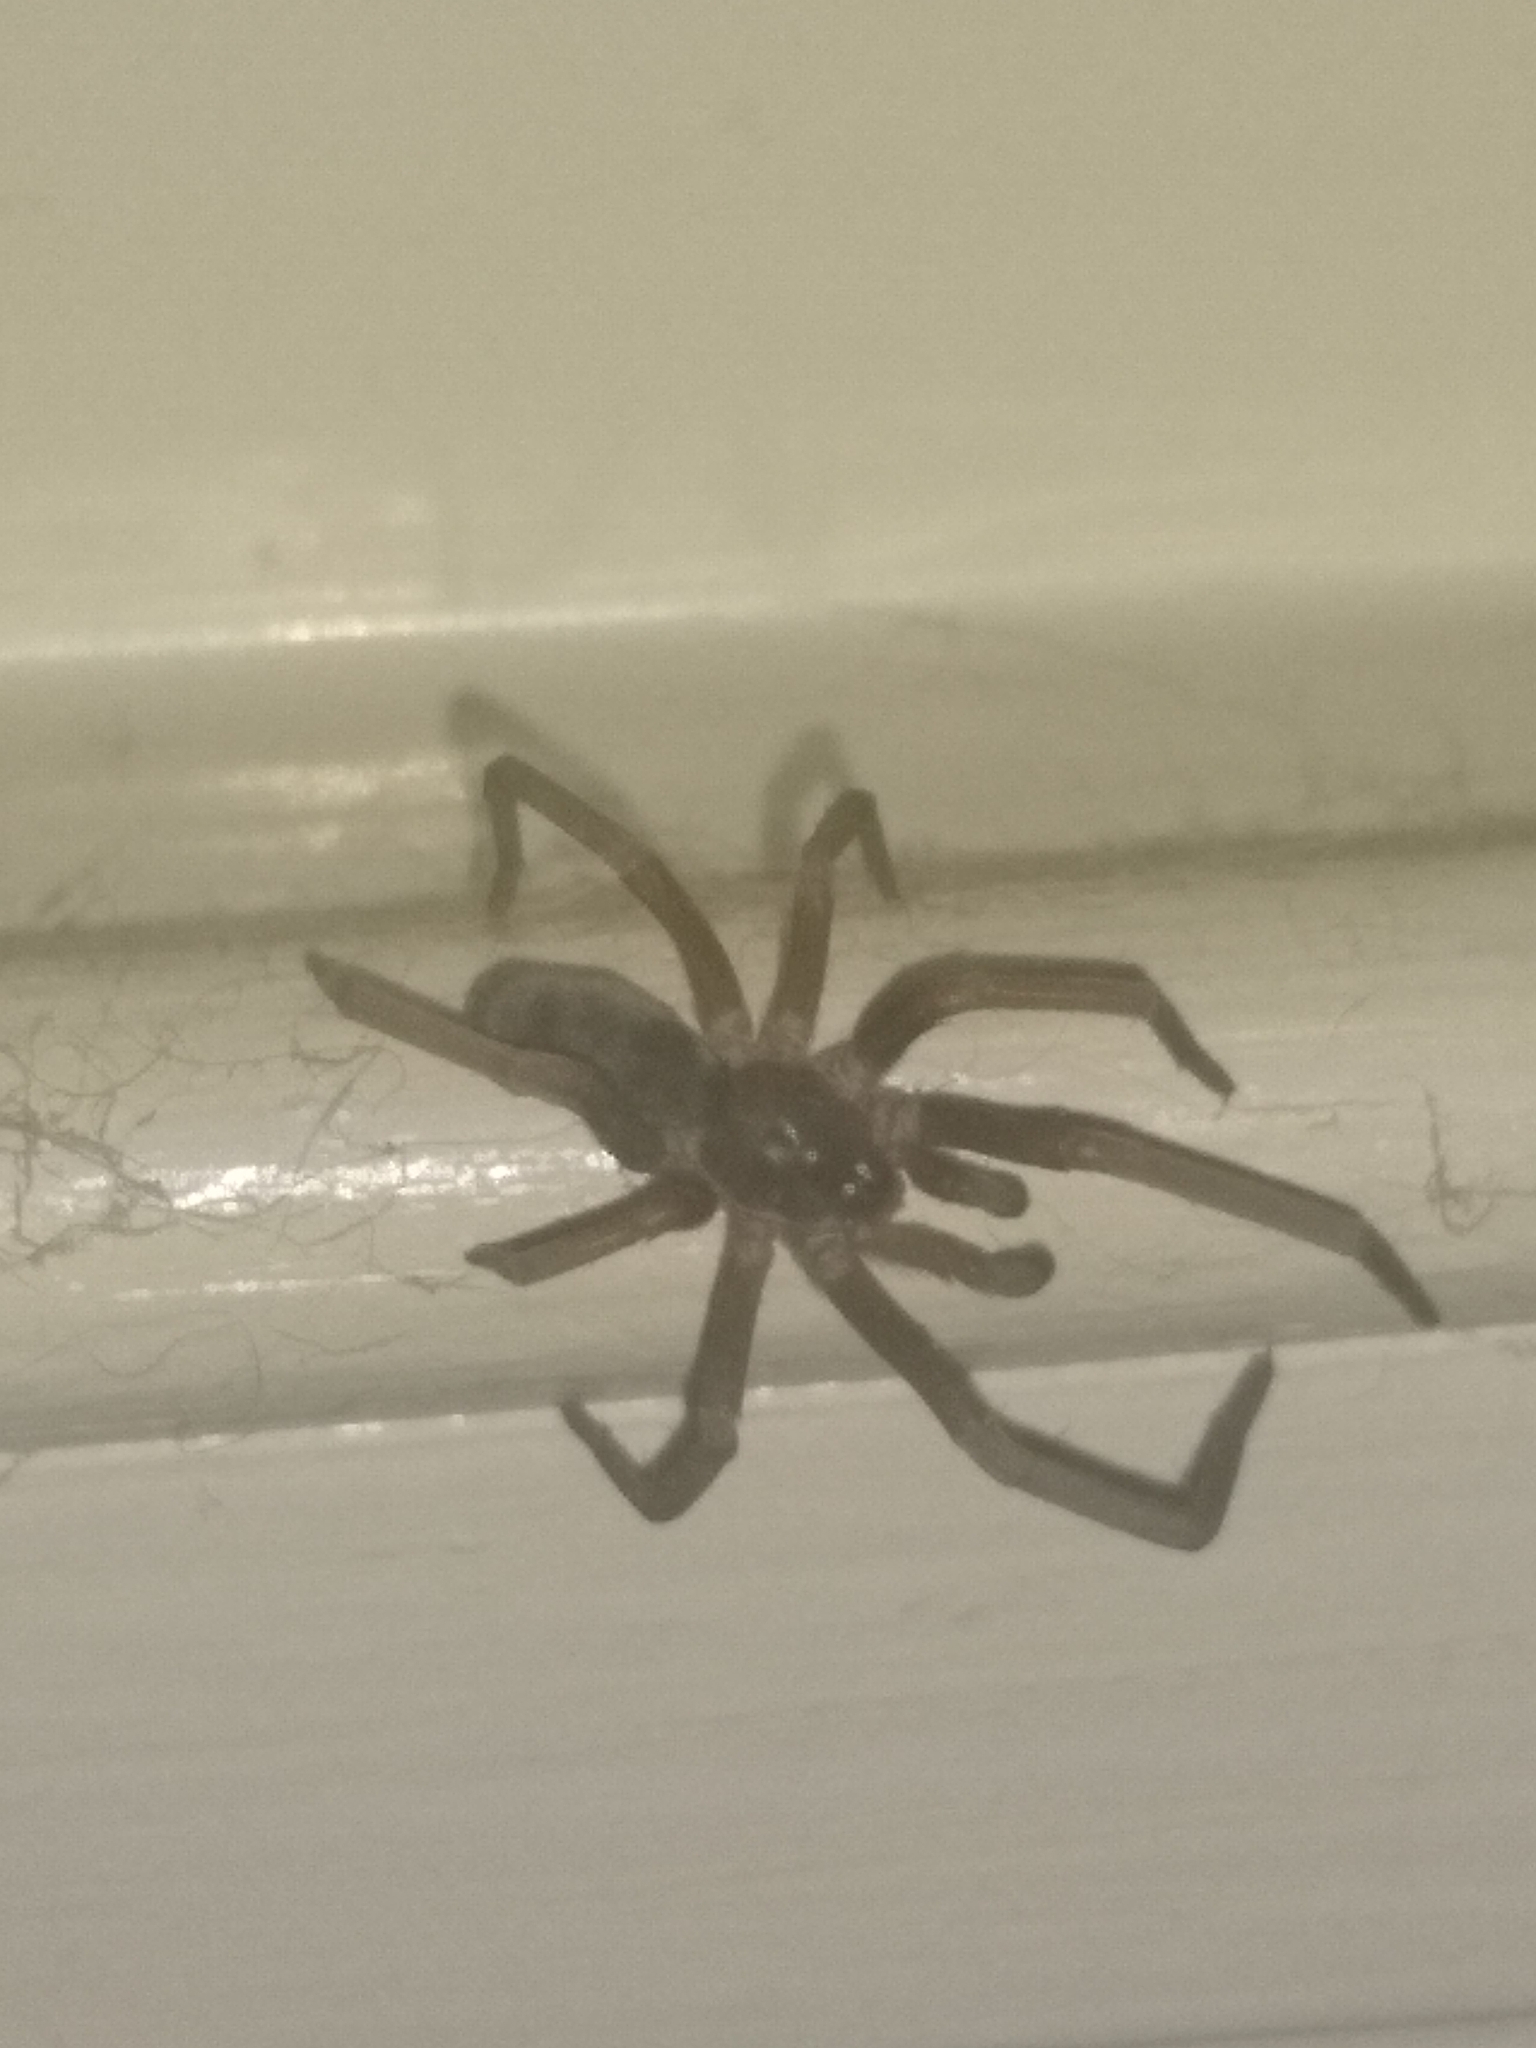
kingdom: Animalia
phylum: Arthropoda
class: Arachnida
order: Araneae
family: Filistatidae
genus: Kukulcania
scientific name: Kukulcania hibernalis
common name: Crevice weaver
